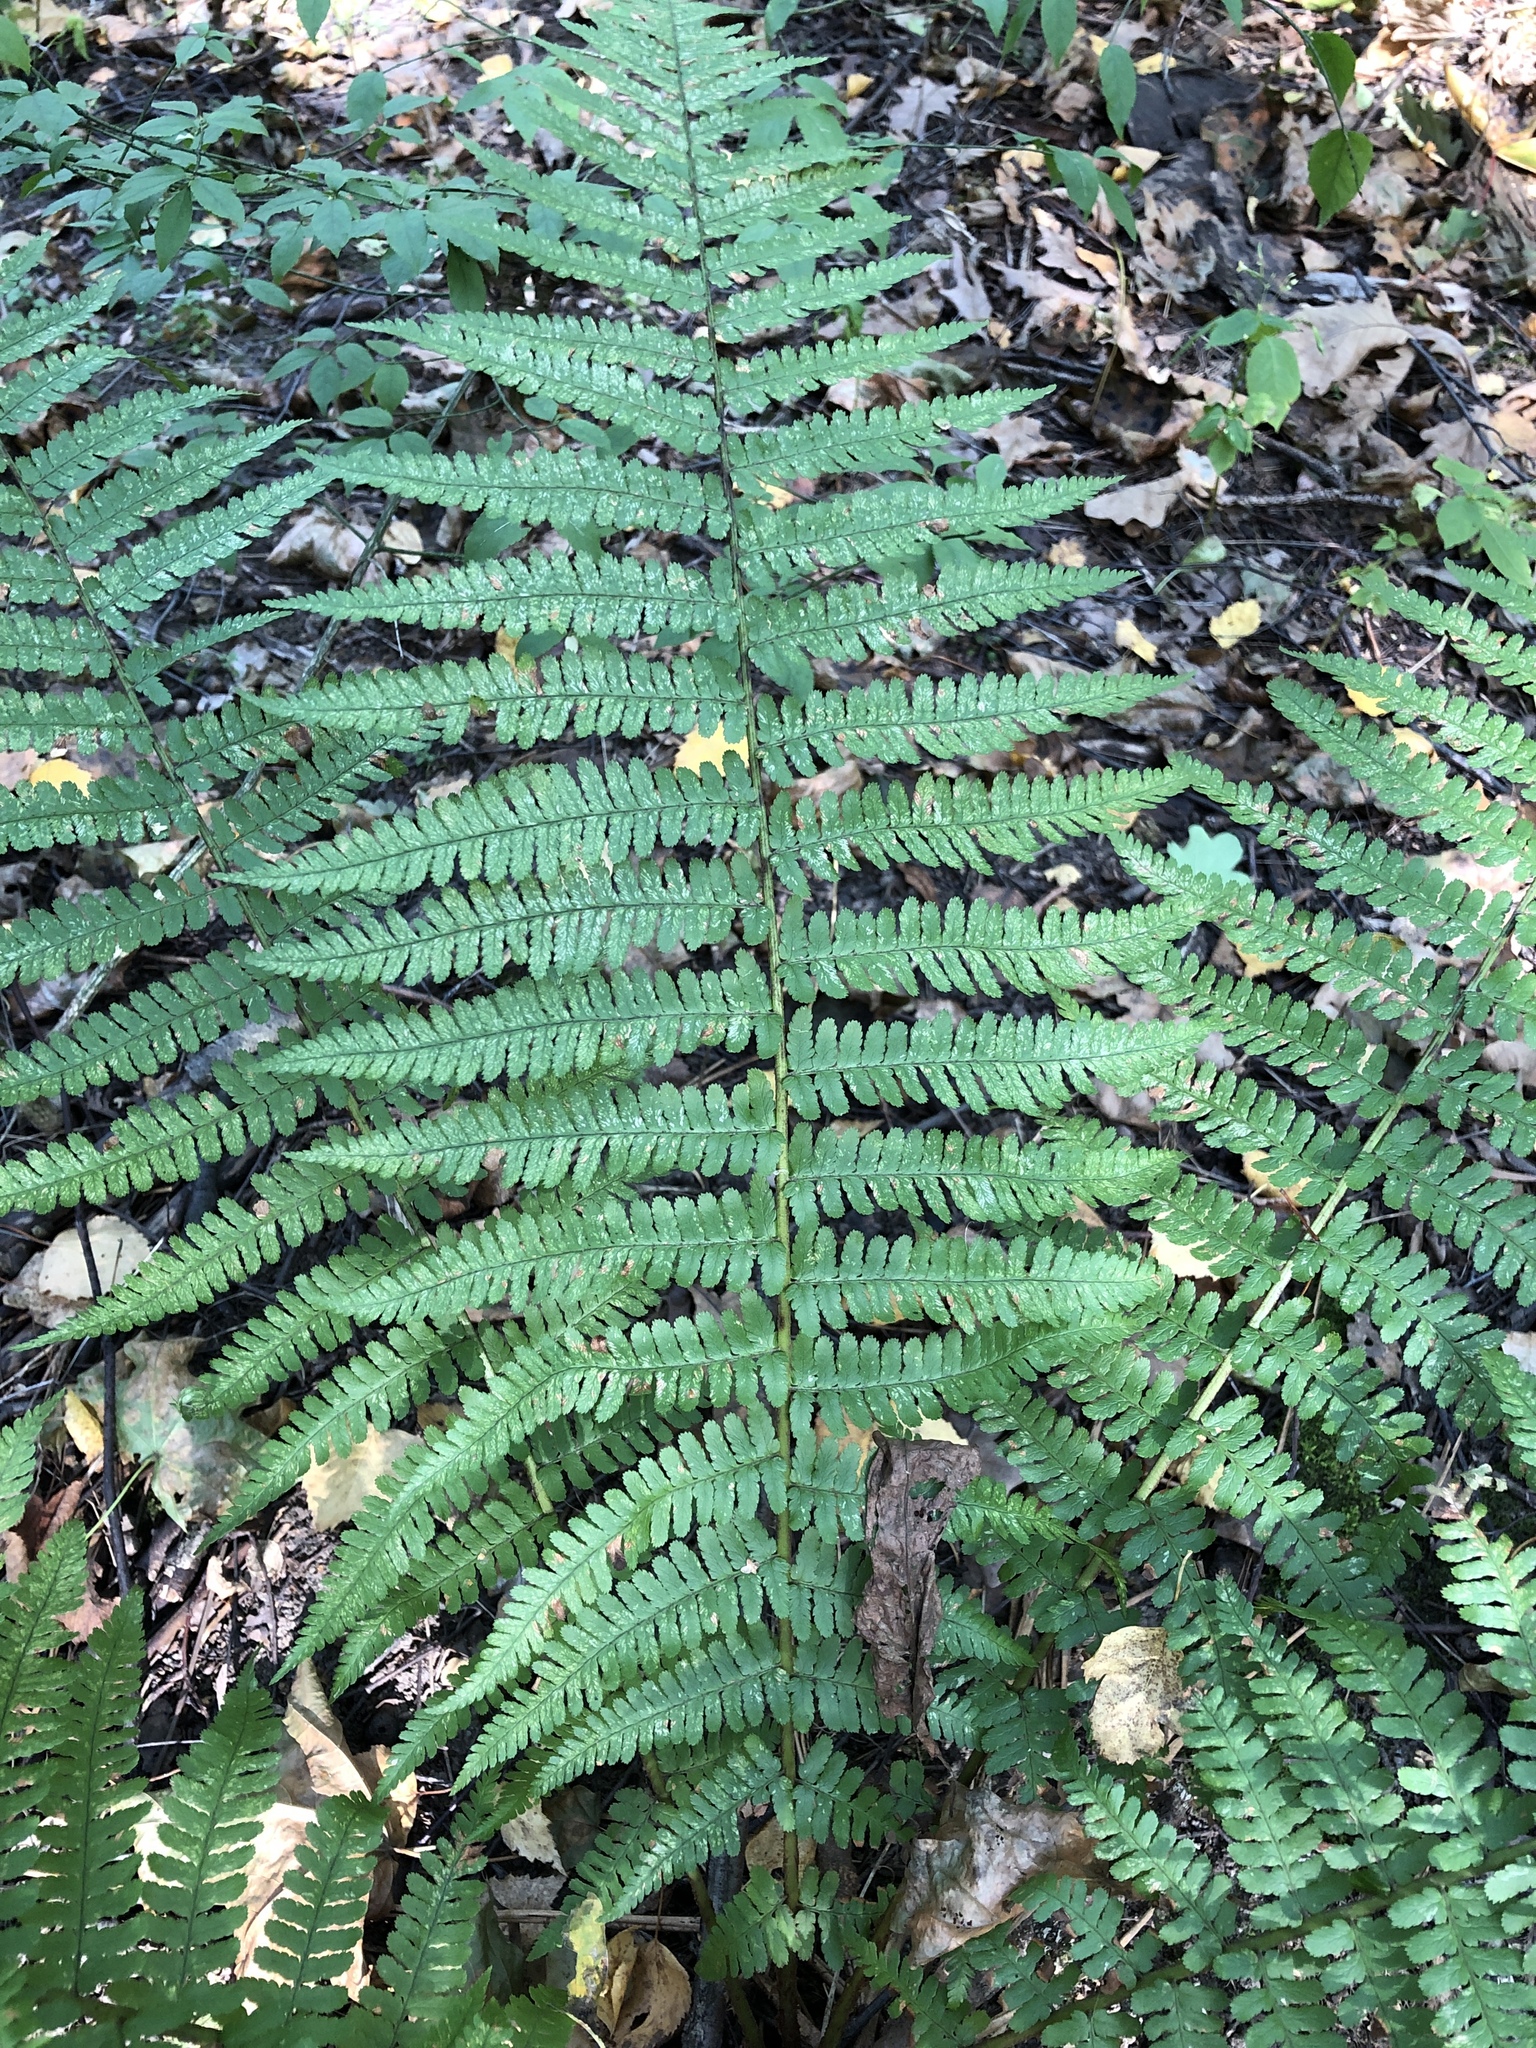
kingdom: Plantae
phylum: Tracheophyta
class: Polypodiopsida
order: Polypodiales
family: Dryopteridaceae
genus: Dryopteris
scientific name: Dryopteris filix-mas
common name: Male fern
